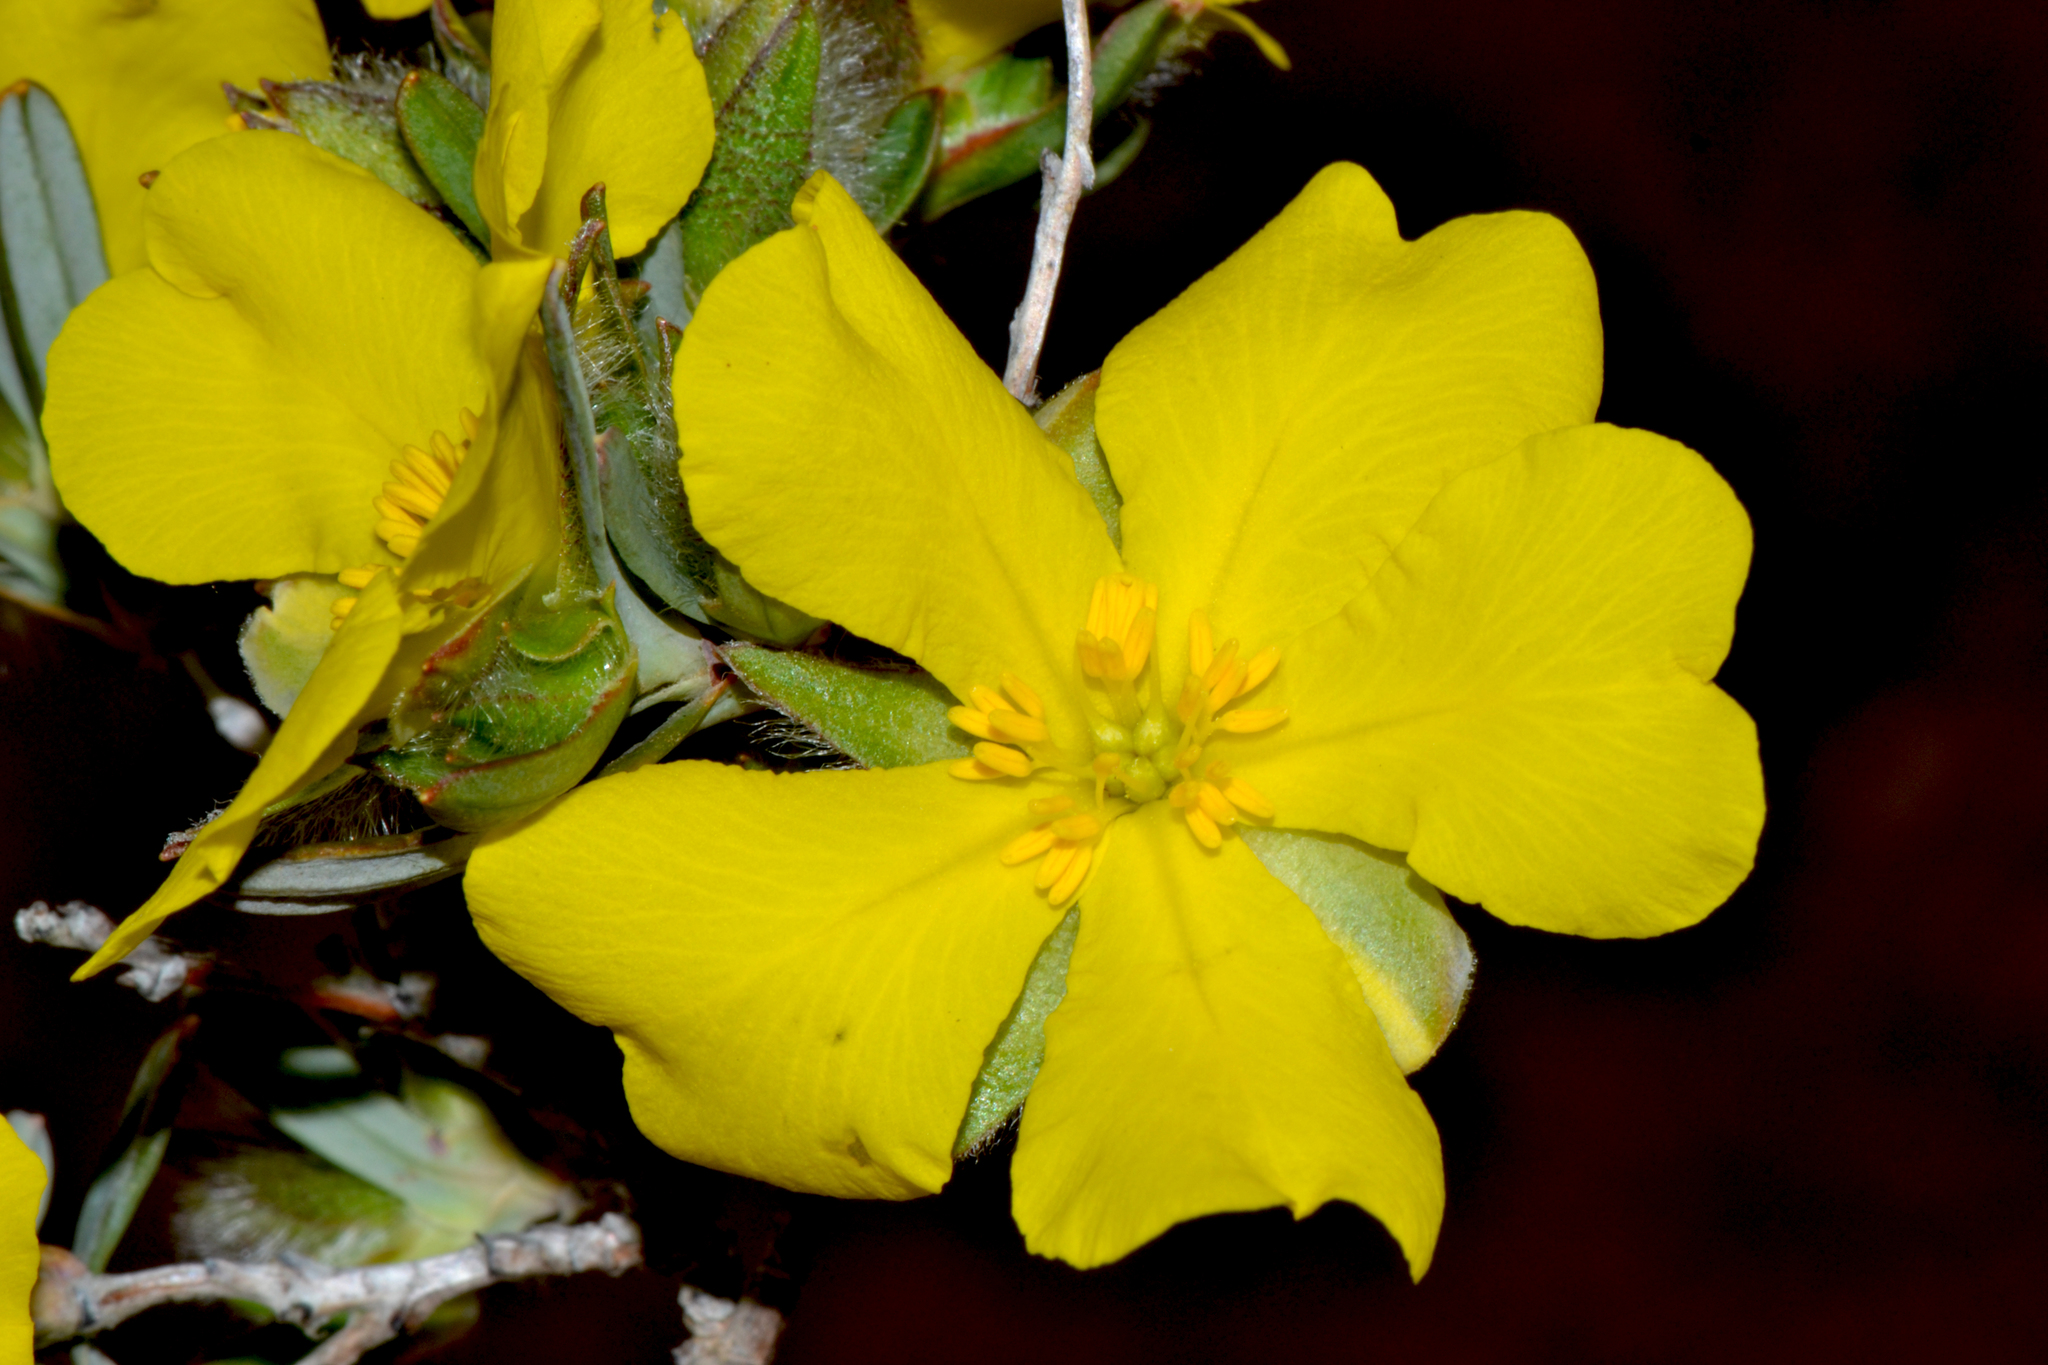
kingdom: Plantae
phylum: Tracheophyta
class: Magnoliopsida
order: Dilleniales
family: Dilleniaceae
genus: Hibbertia
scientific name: Hibbertia glomerosa
